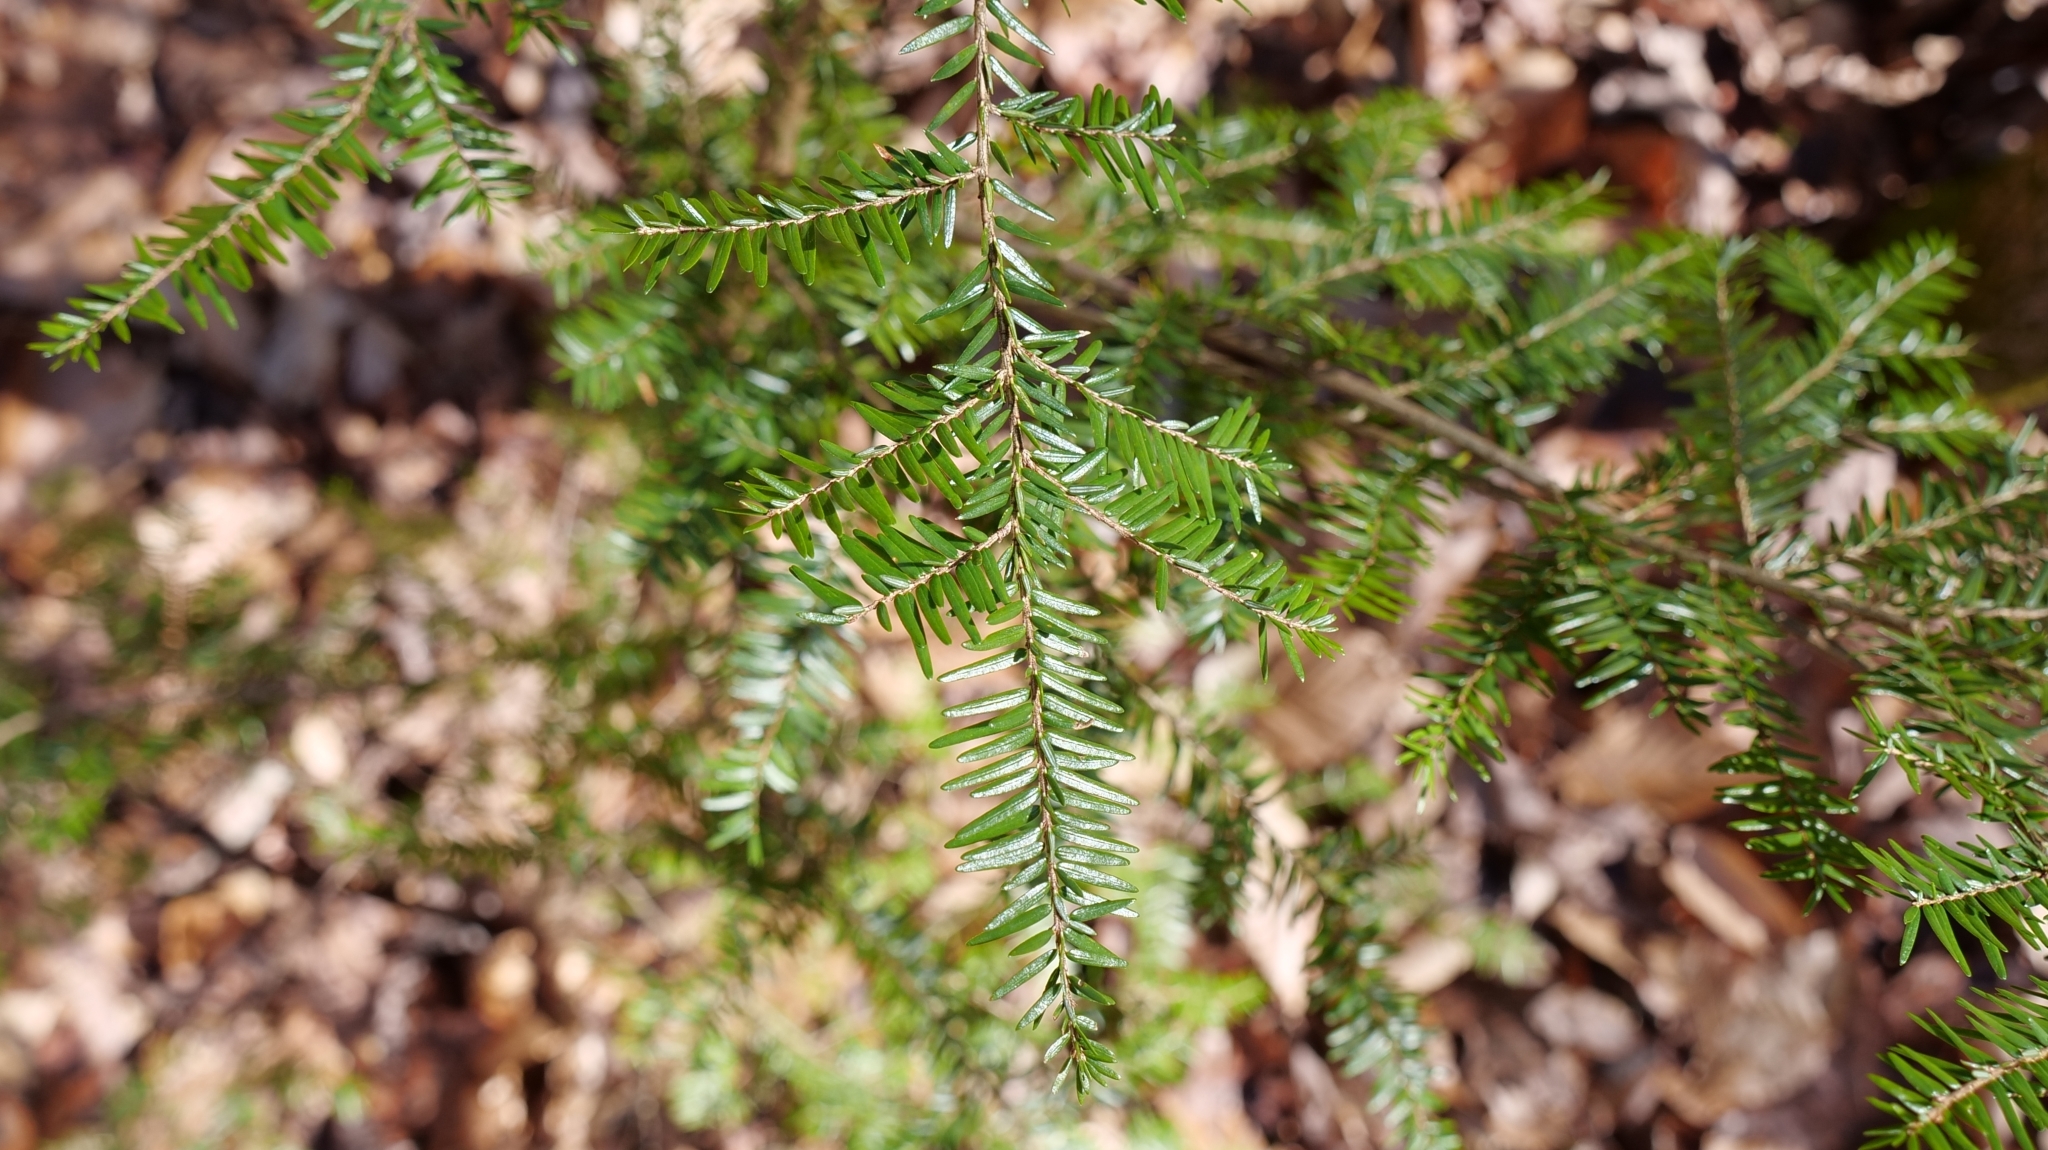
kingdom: Plantae
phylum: Tracheophyta
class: Pinopsida
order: Pinales
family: Pinaceae
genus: Tsuga
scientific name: Tsuga canadensis
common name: Eastern hemlock
